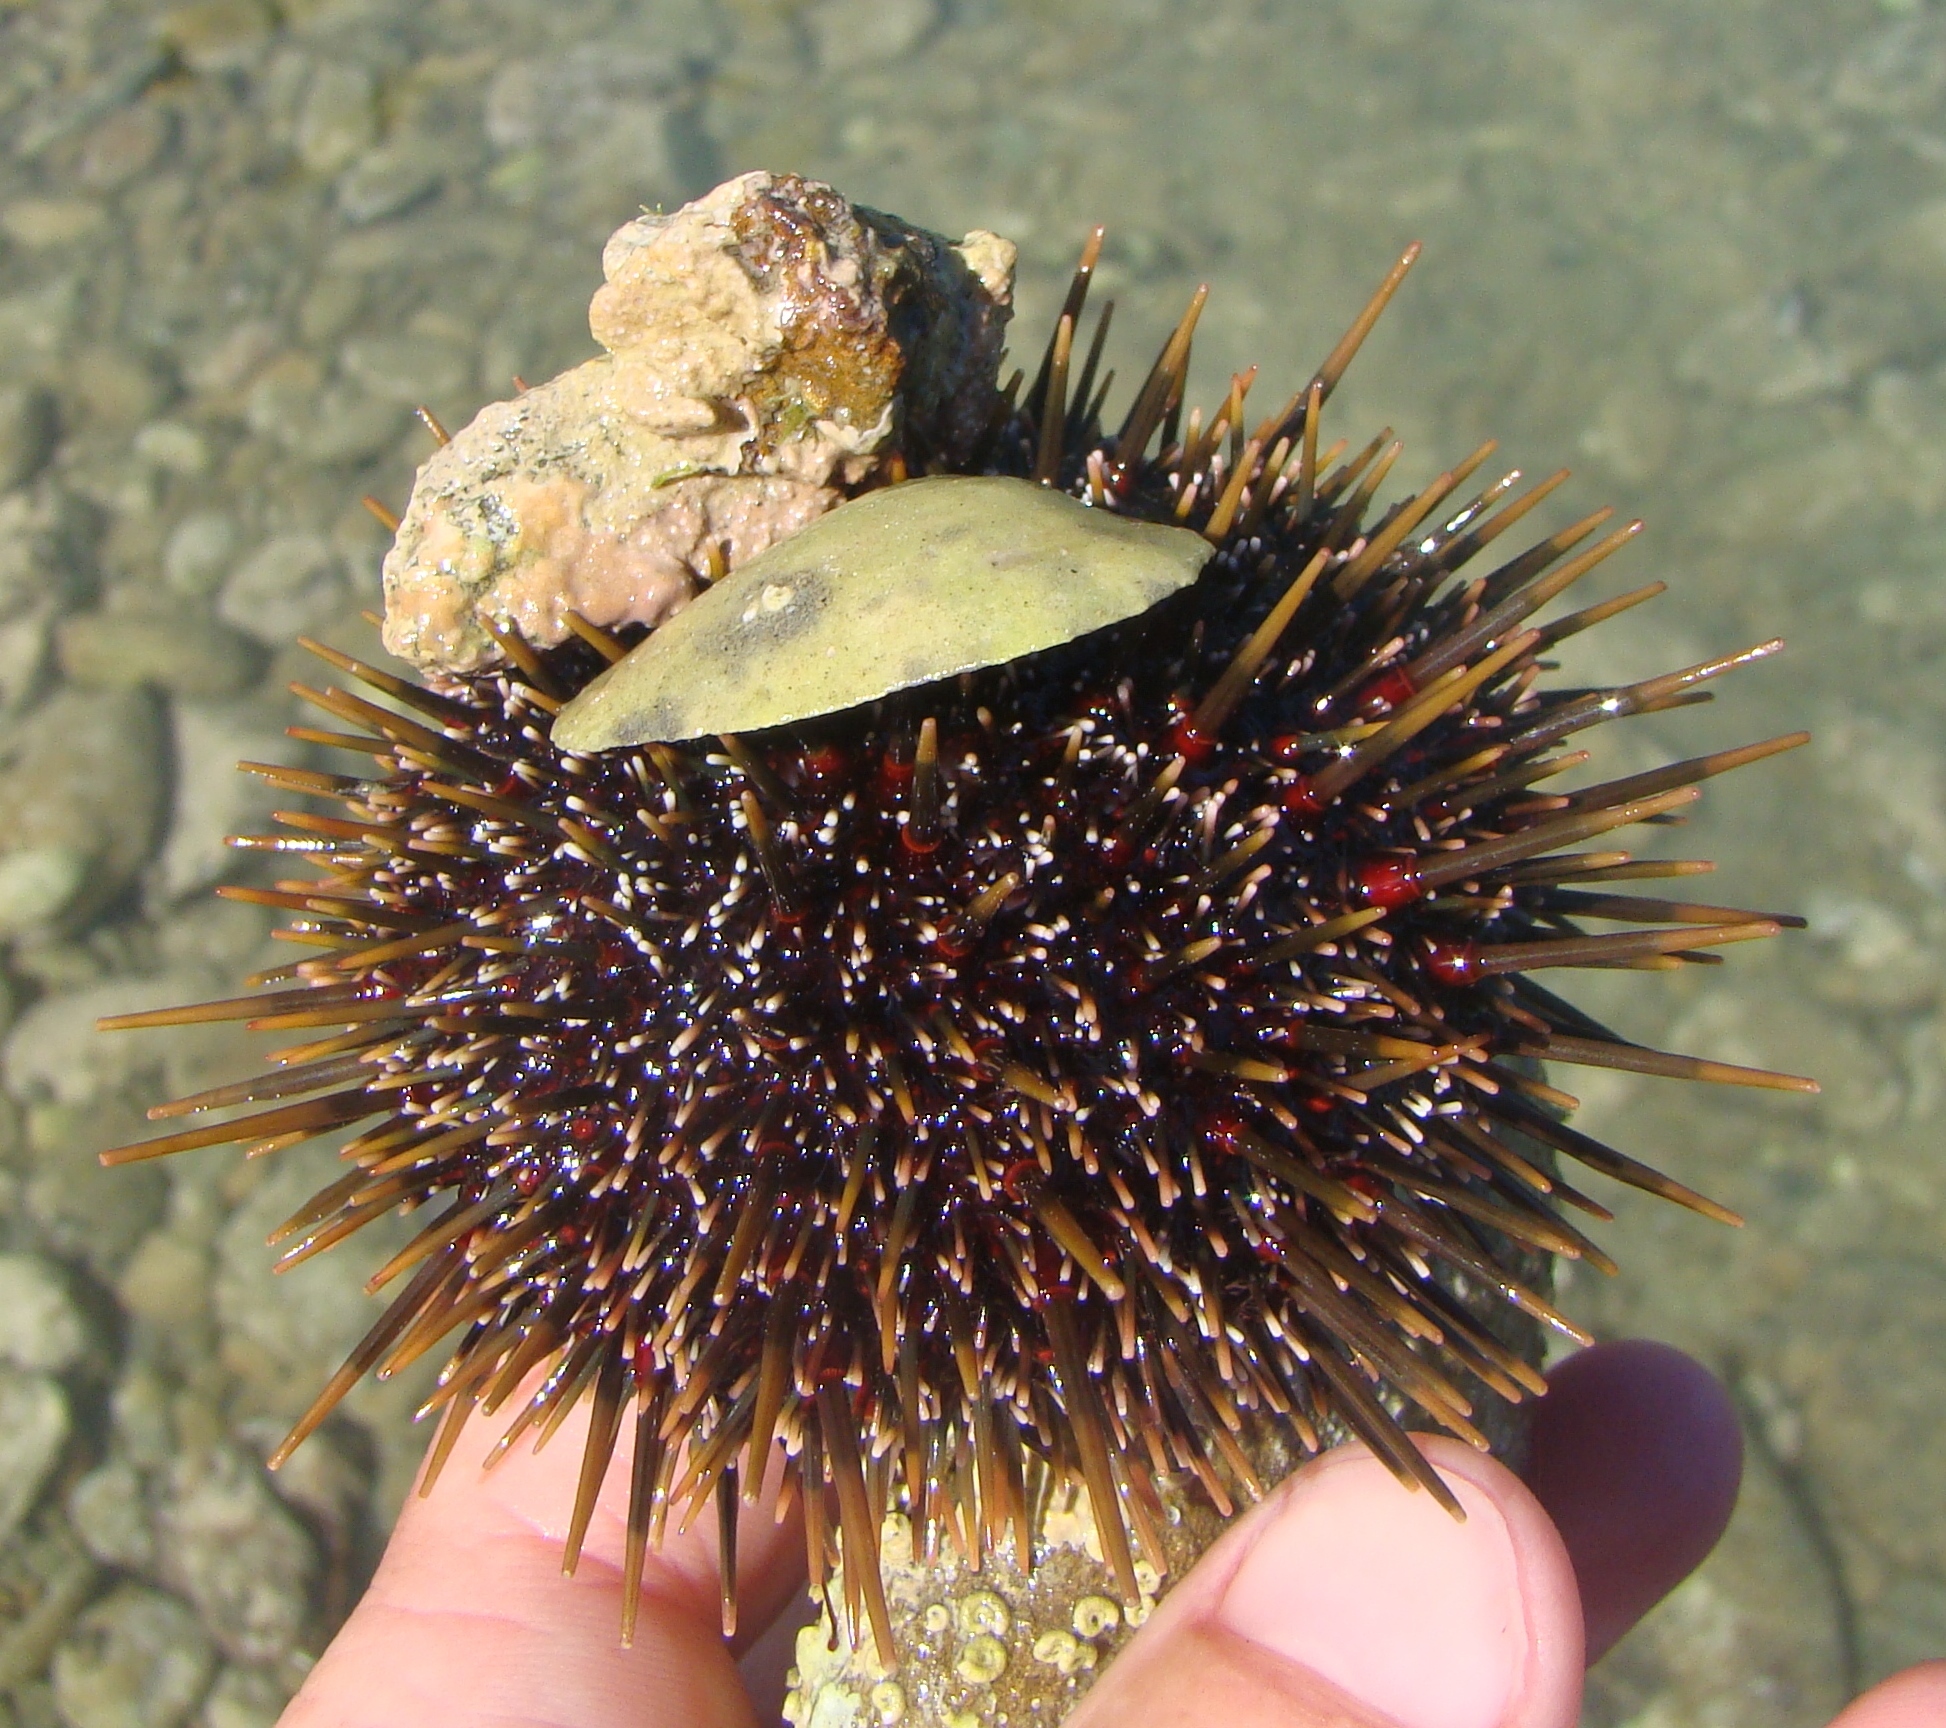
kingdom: Animalia
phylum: Echinodermata
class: Echinoidea
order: Camarodonta
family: Echinometridae
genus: Evechinus
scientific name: Evechinus chloroticus
